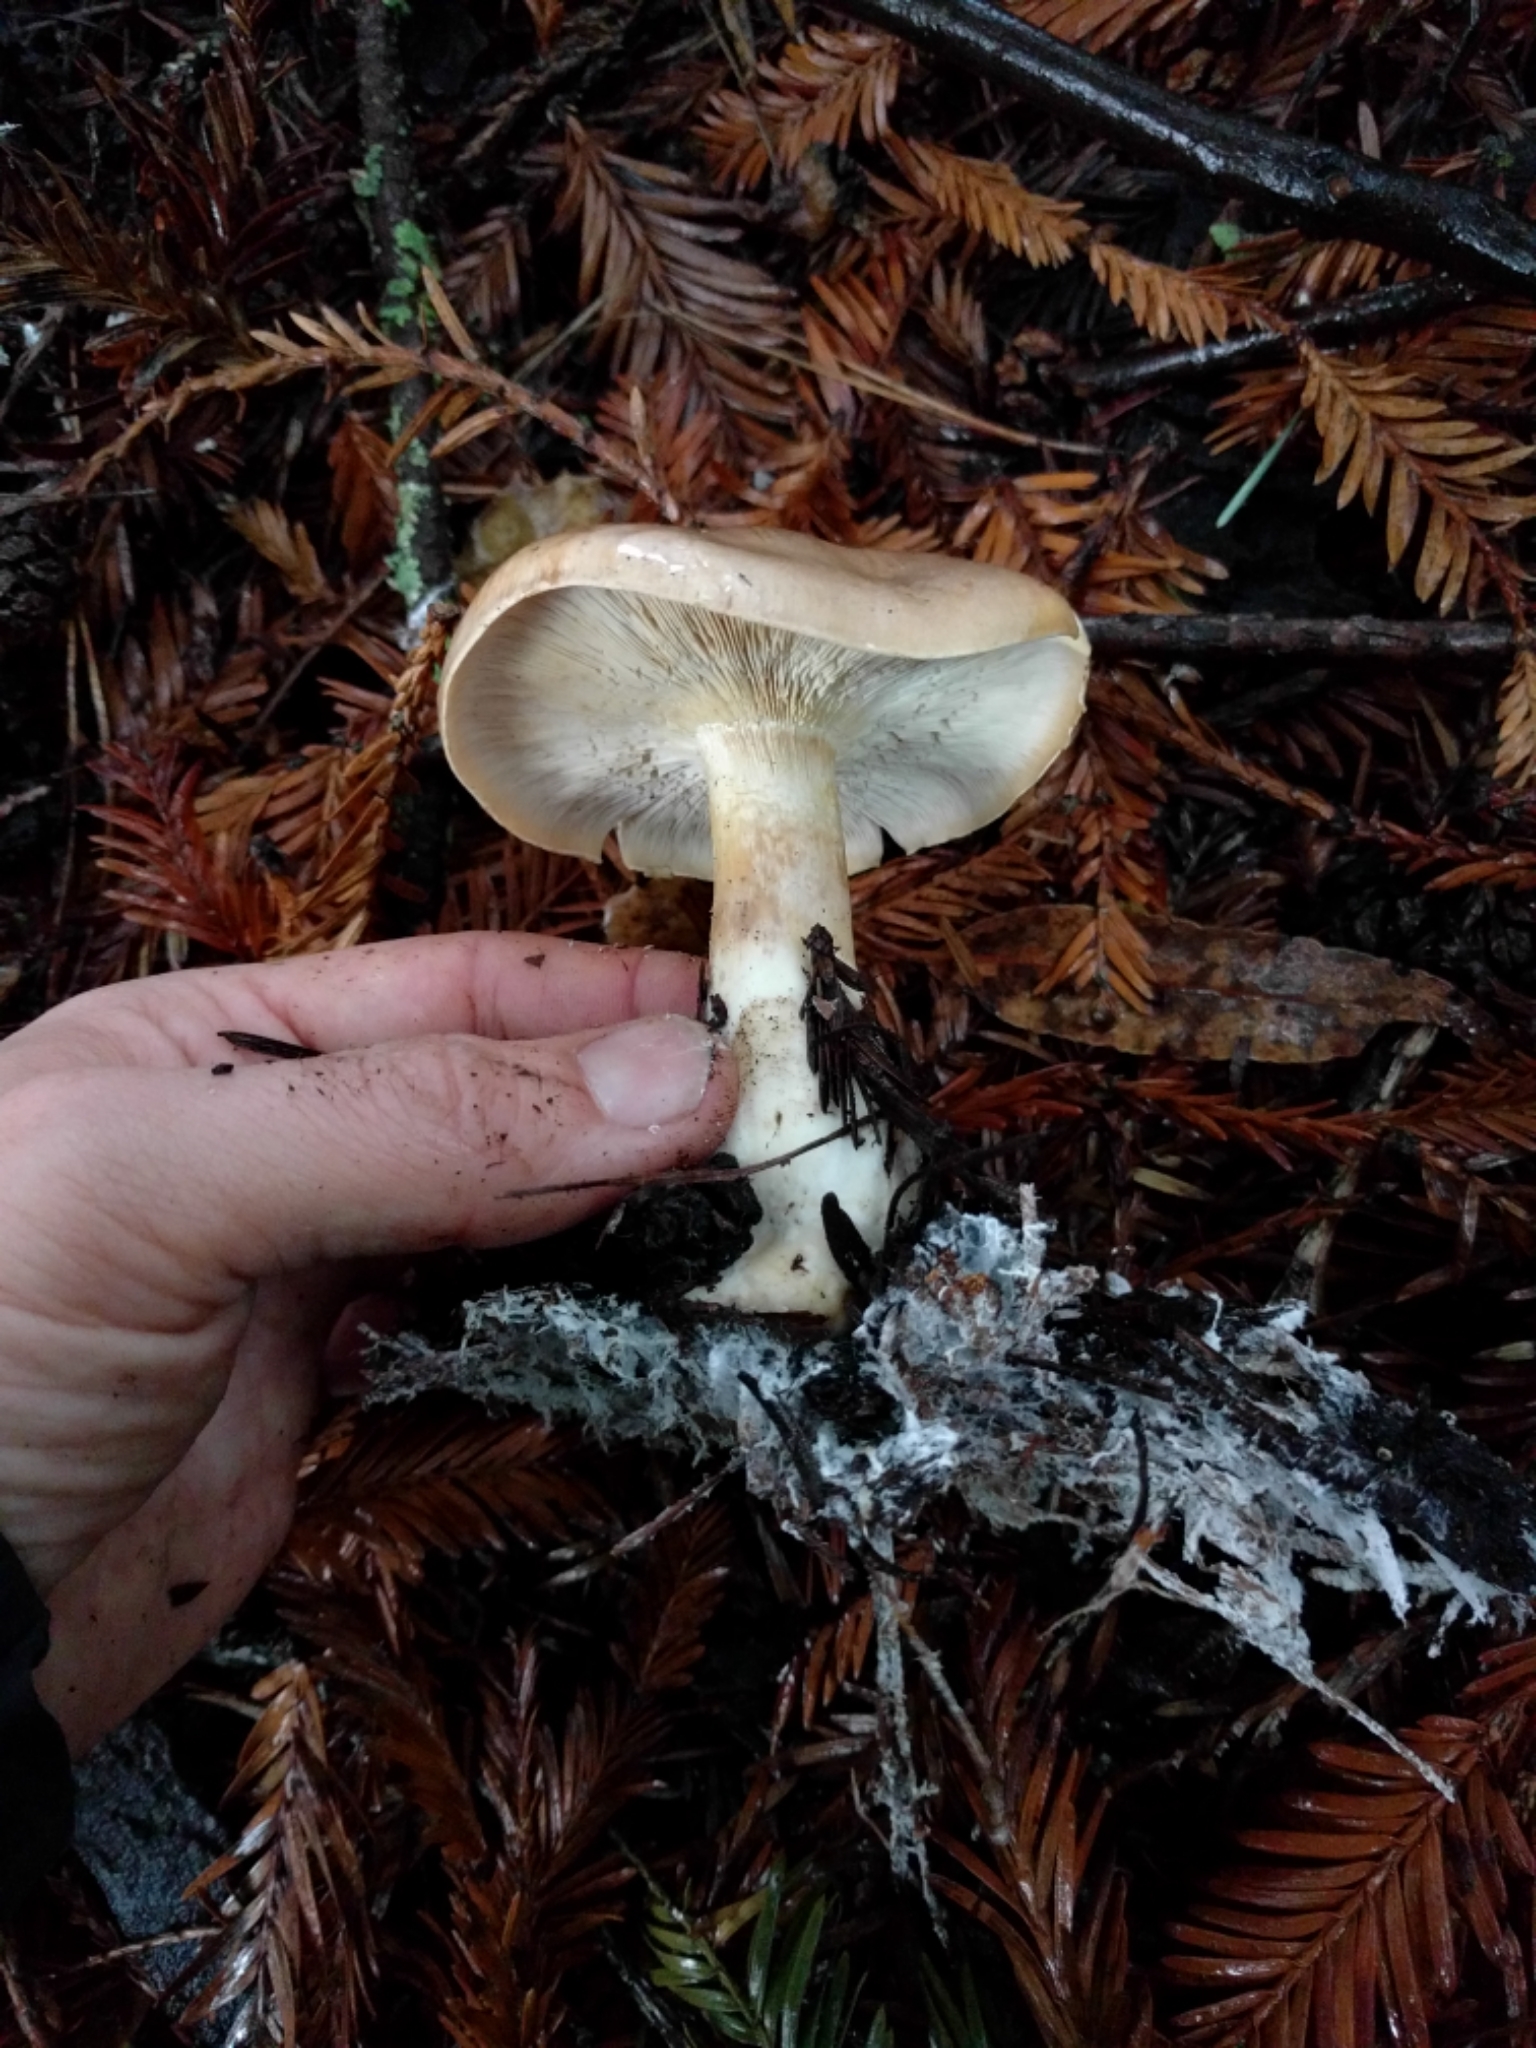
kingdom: Fungi
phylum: Basidiomycota
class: Agaricomycetes
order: Agaricales
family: Tricholomataceae
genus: Leucopaxillus
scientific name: Leucopaxillus gentianeus
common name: Bitter funnel
